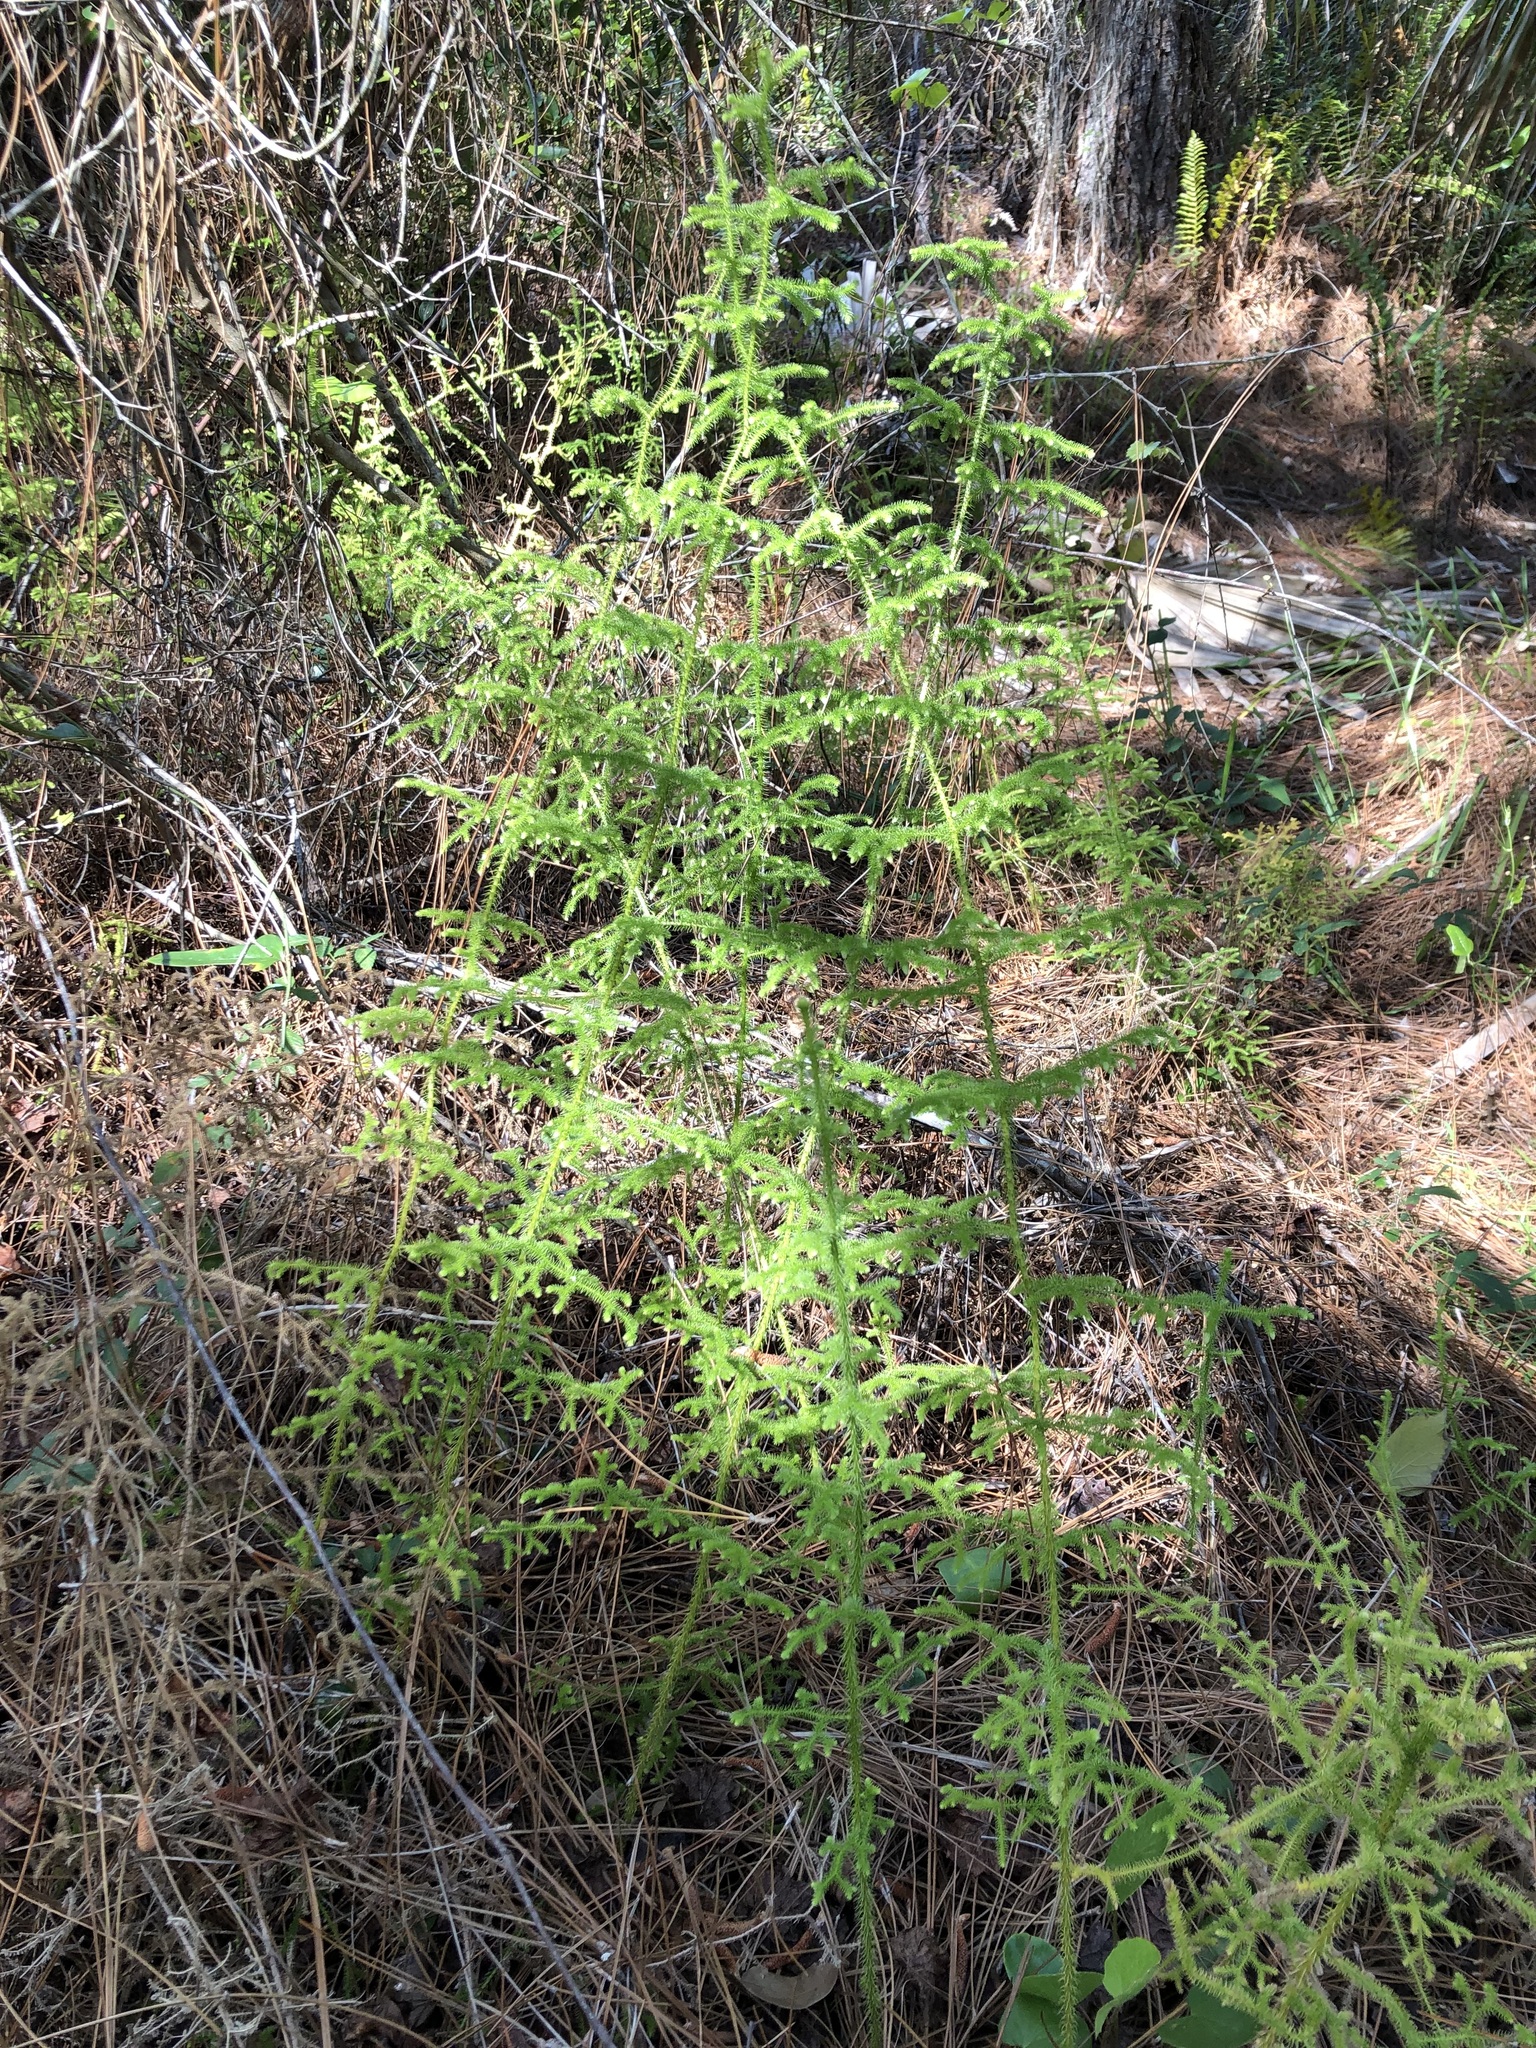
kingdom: Plantae
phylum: Tracheophyta
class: Lycopodiopsida
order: Lycopodiales
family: Lycopodiaceae
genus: Palhinhaea
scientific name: Palhinhaea cernua
